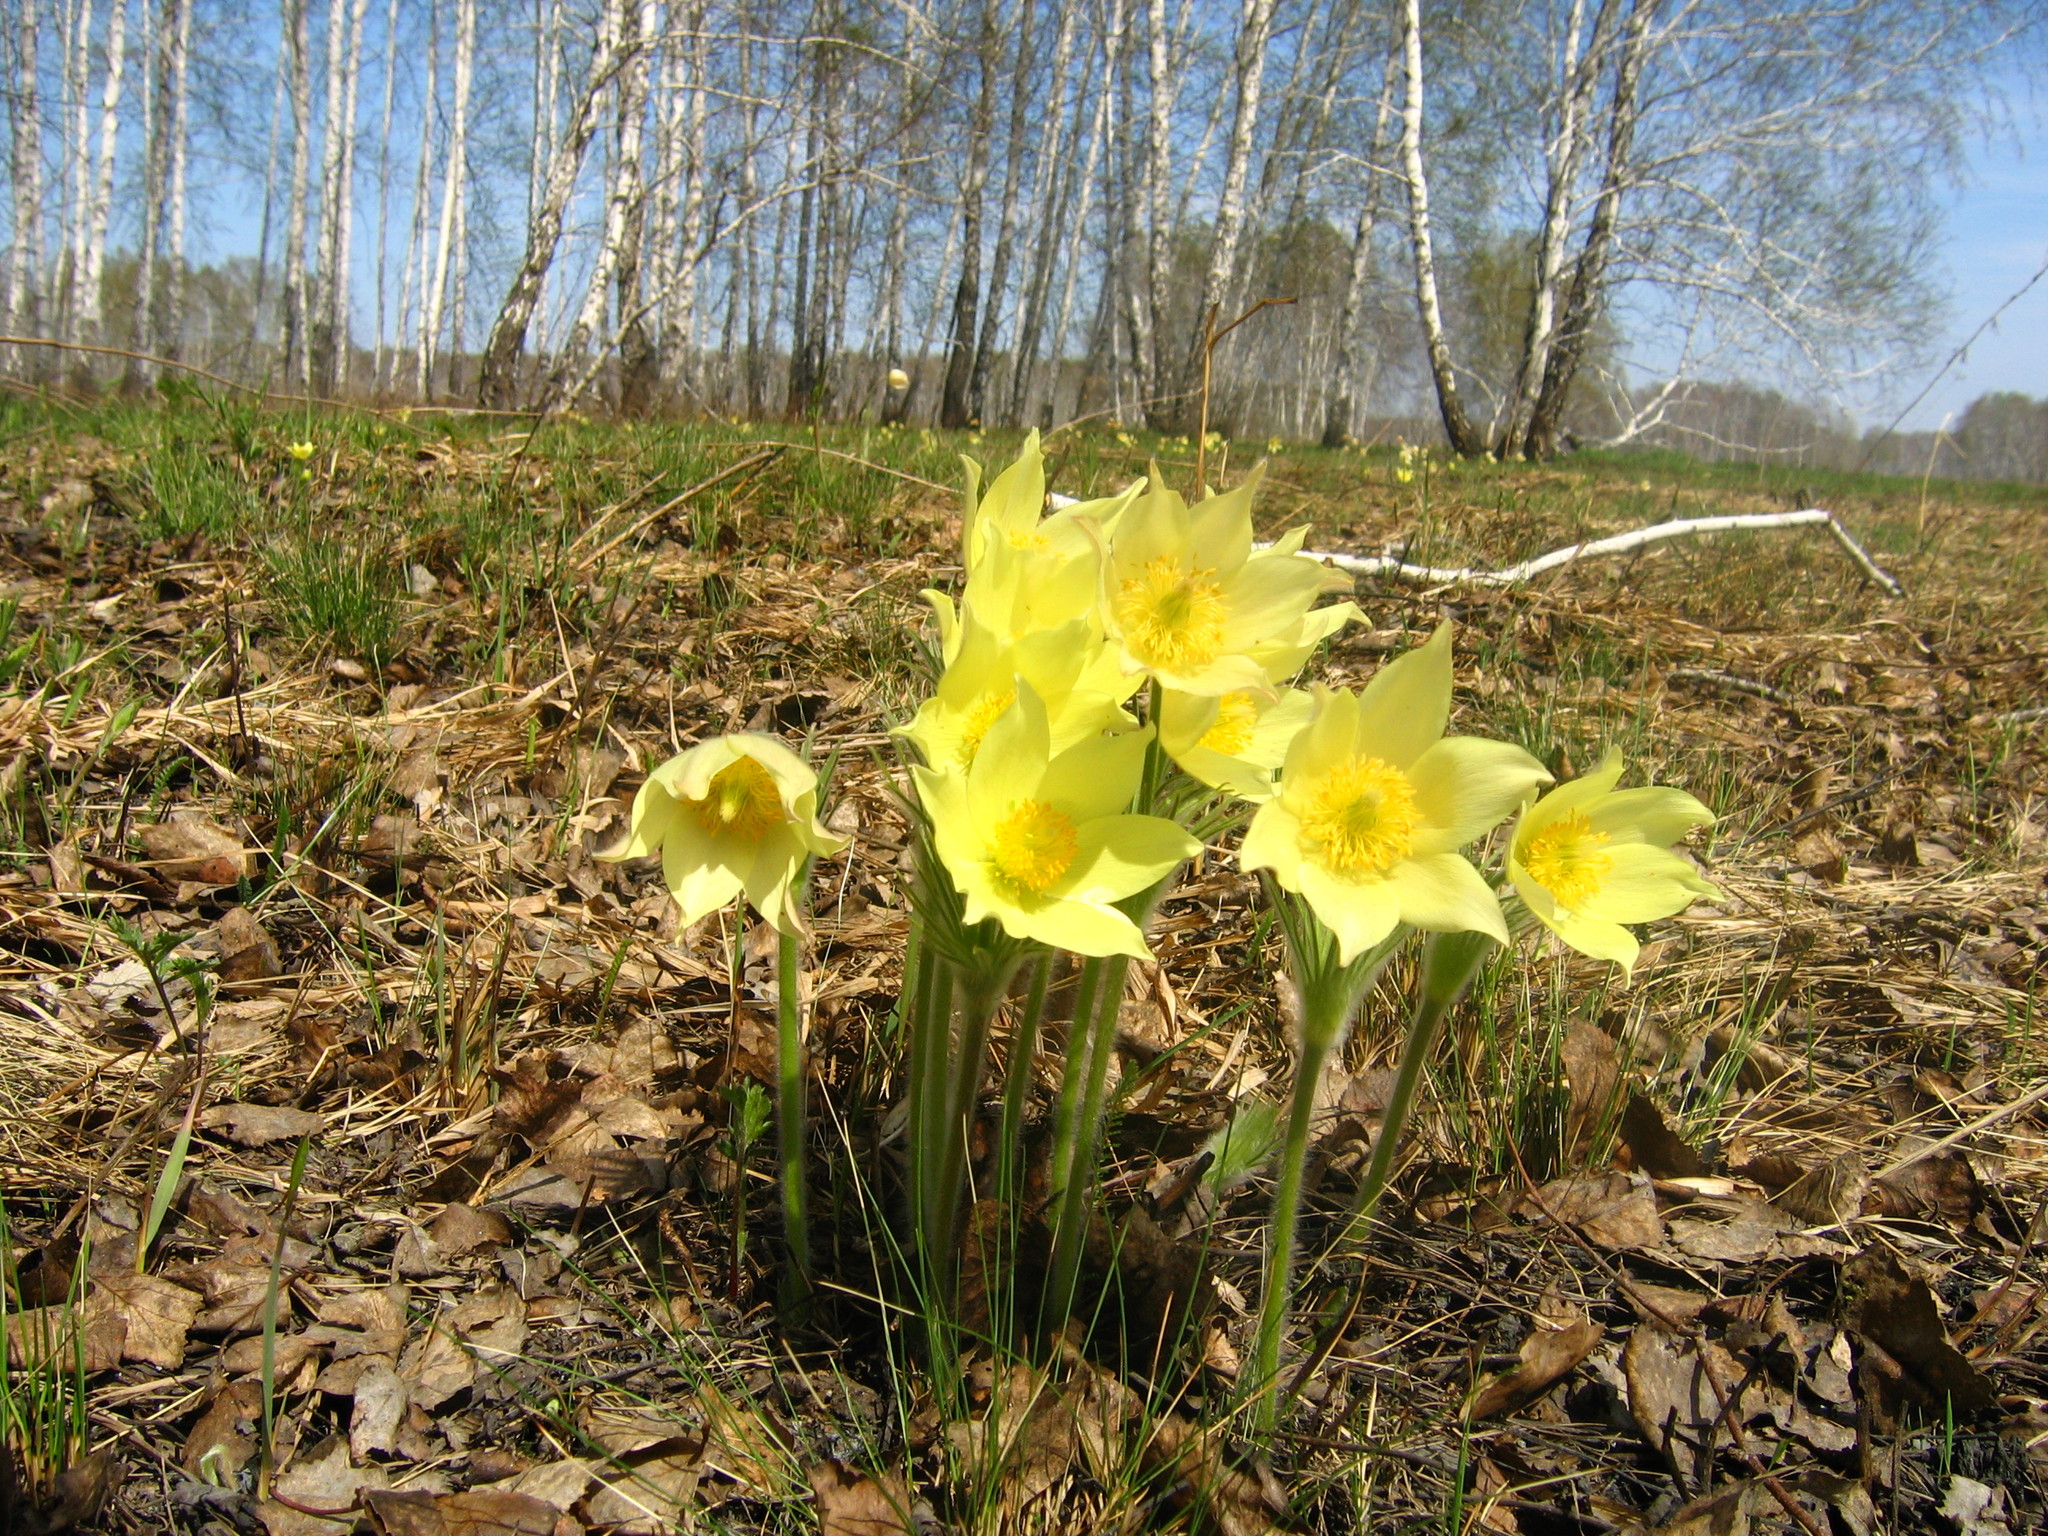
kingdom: Plantae
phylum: Tracheophyta
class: Magnoliopsida
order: Ranunculales
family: Ranunculaceae
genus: Pulsatilla
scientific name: Pulsatilla patens
